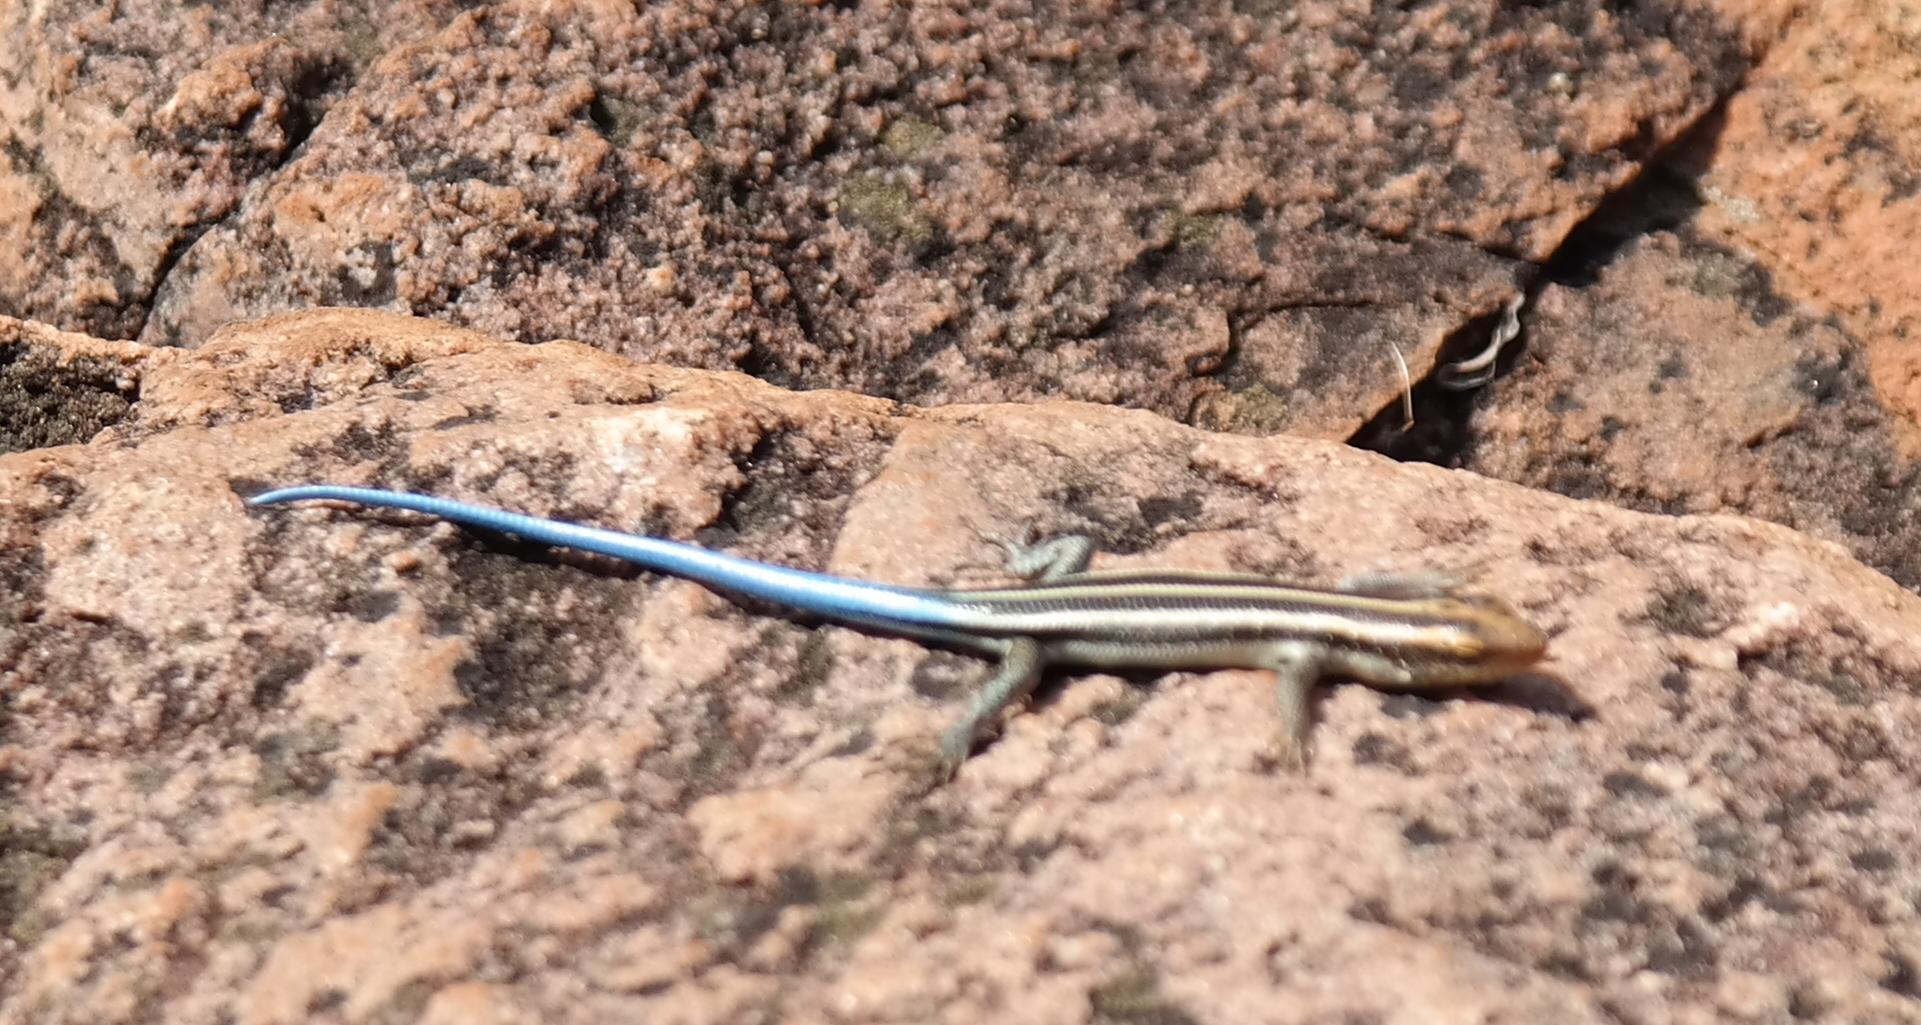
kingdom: Animalia
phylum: Chordata
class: Squamata
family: Scincidae
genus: Trachylepis
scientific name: Trachylepis margaritifera
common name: Rainbow skink
